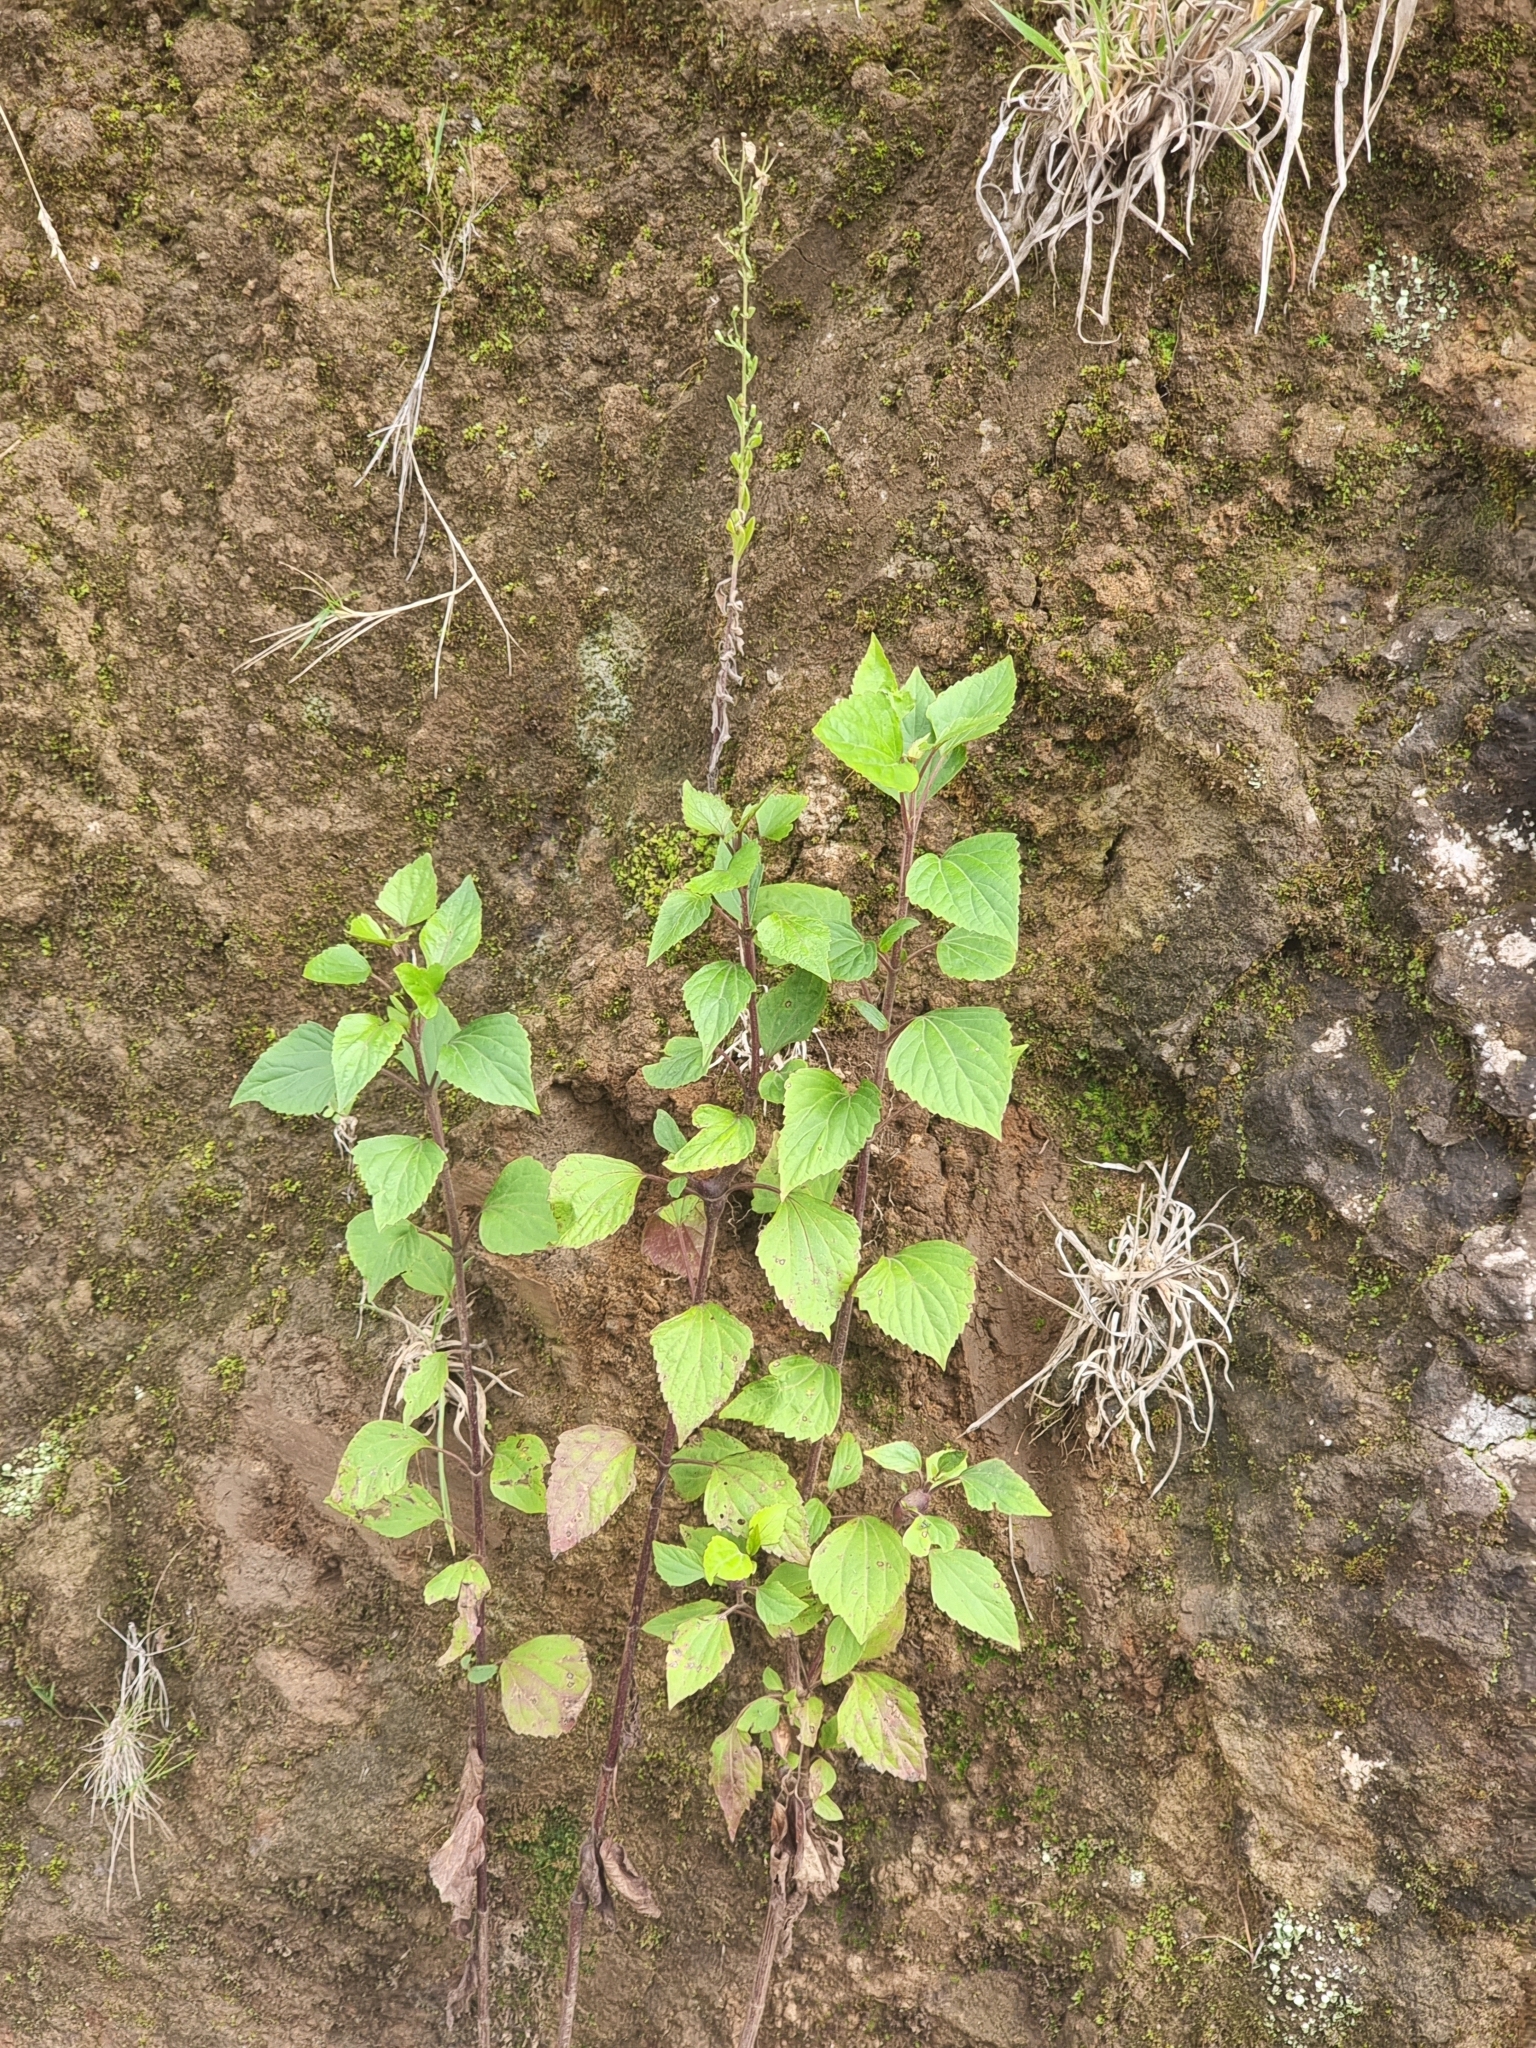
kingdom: Plantae
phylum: Tracheophyta
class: Magnoliopsida
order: Asterales
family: Asteraceae
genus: Ageratina
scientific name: Ageratina adenophora
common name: Sticky snakeroot
